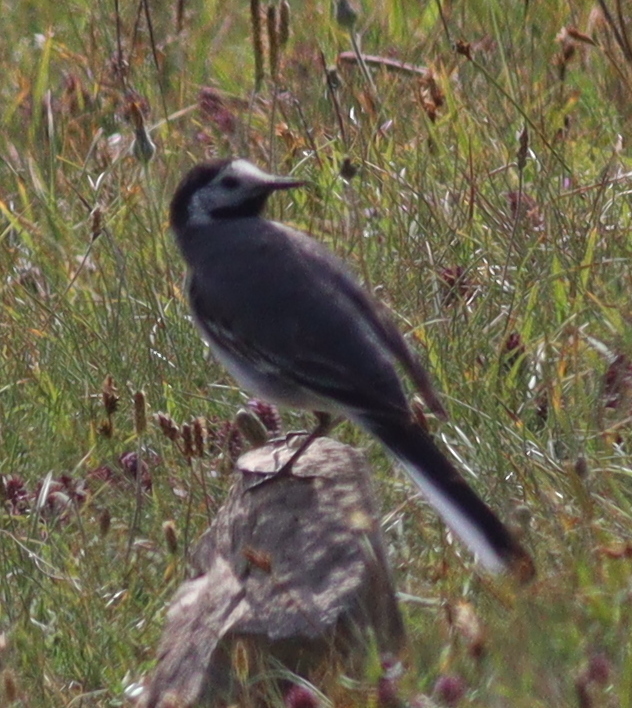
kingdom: Animalia
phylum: Chordata
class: Aves
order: Passeriformes
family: Motacillidae
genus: Motacilla
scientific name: Motacilla alba
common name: White wagtail
